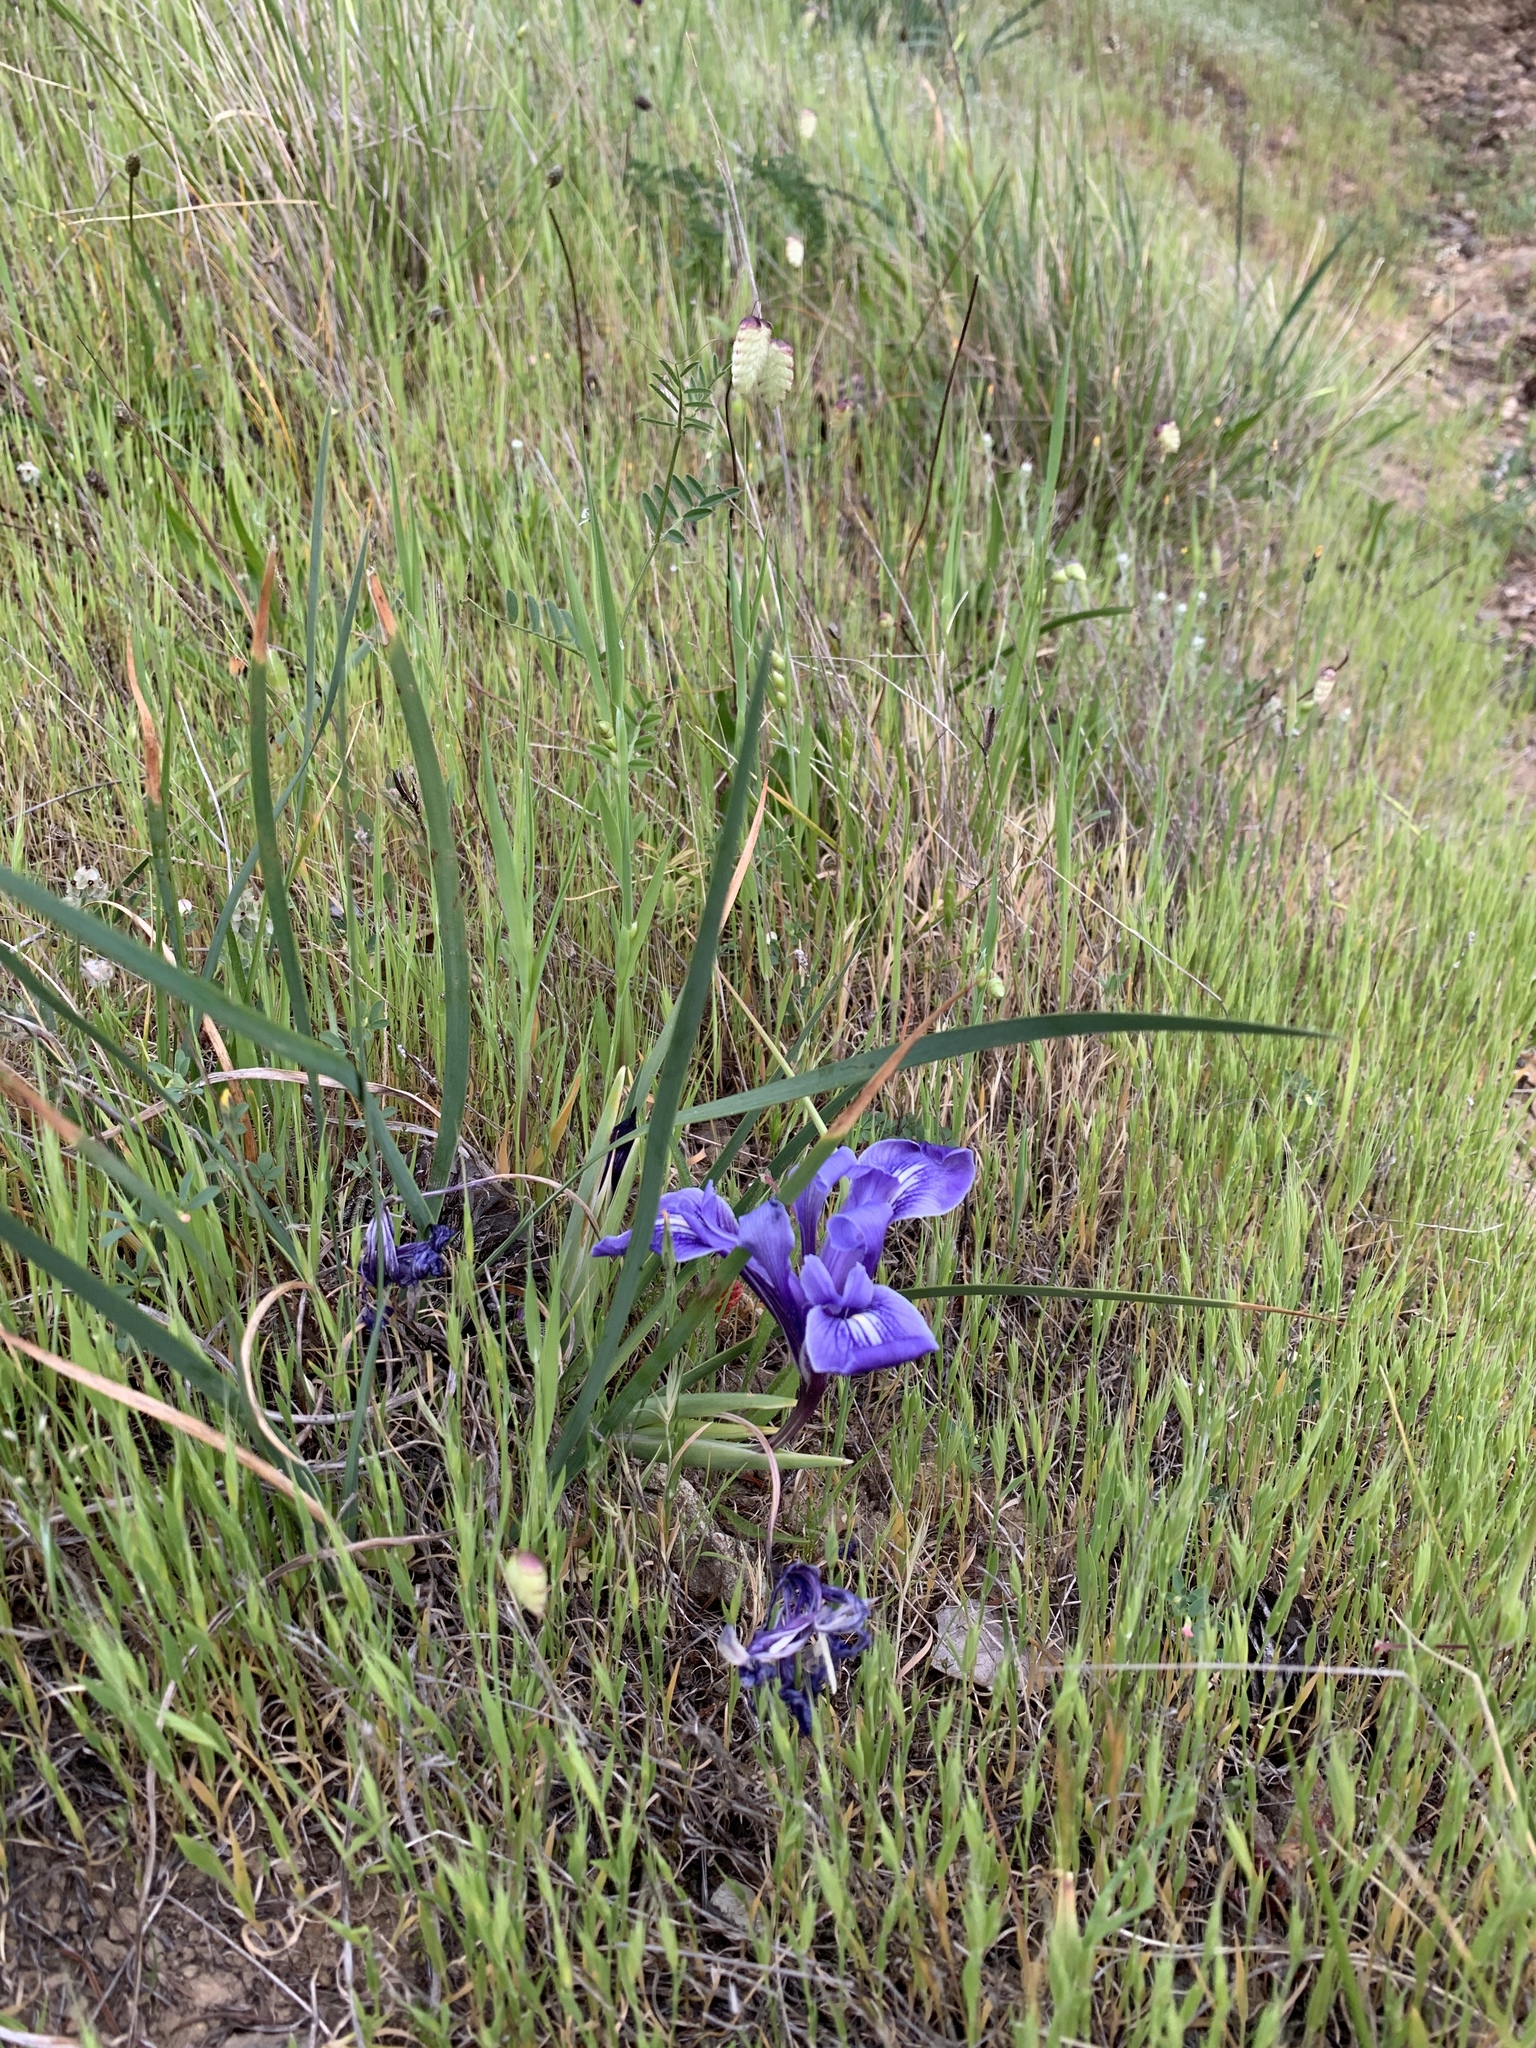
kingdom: Plantae
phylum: Tracheophyta
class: Liliopsida
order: Asparagales
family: Iridaceae
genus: Iris
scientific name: Iris macrosiphon
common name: Ground iris
